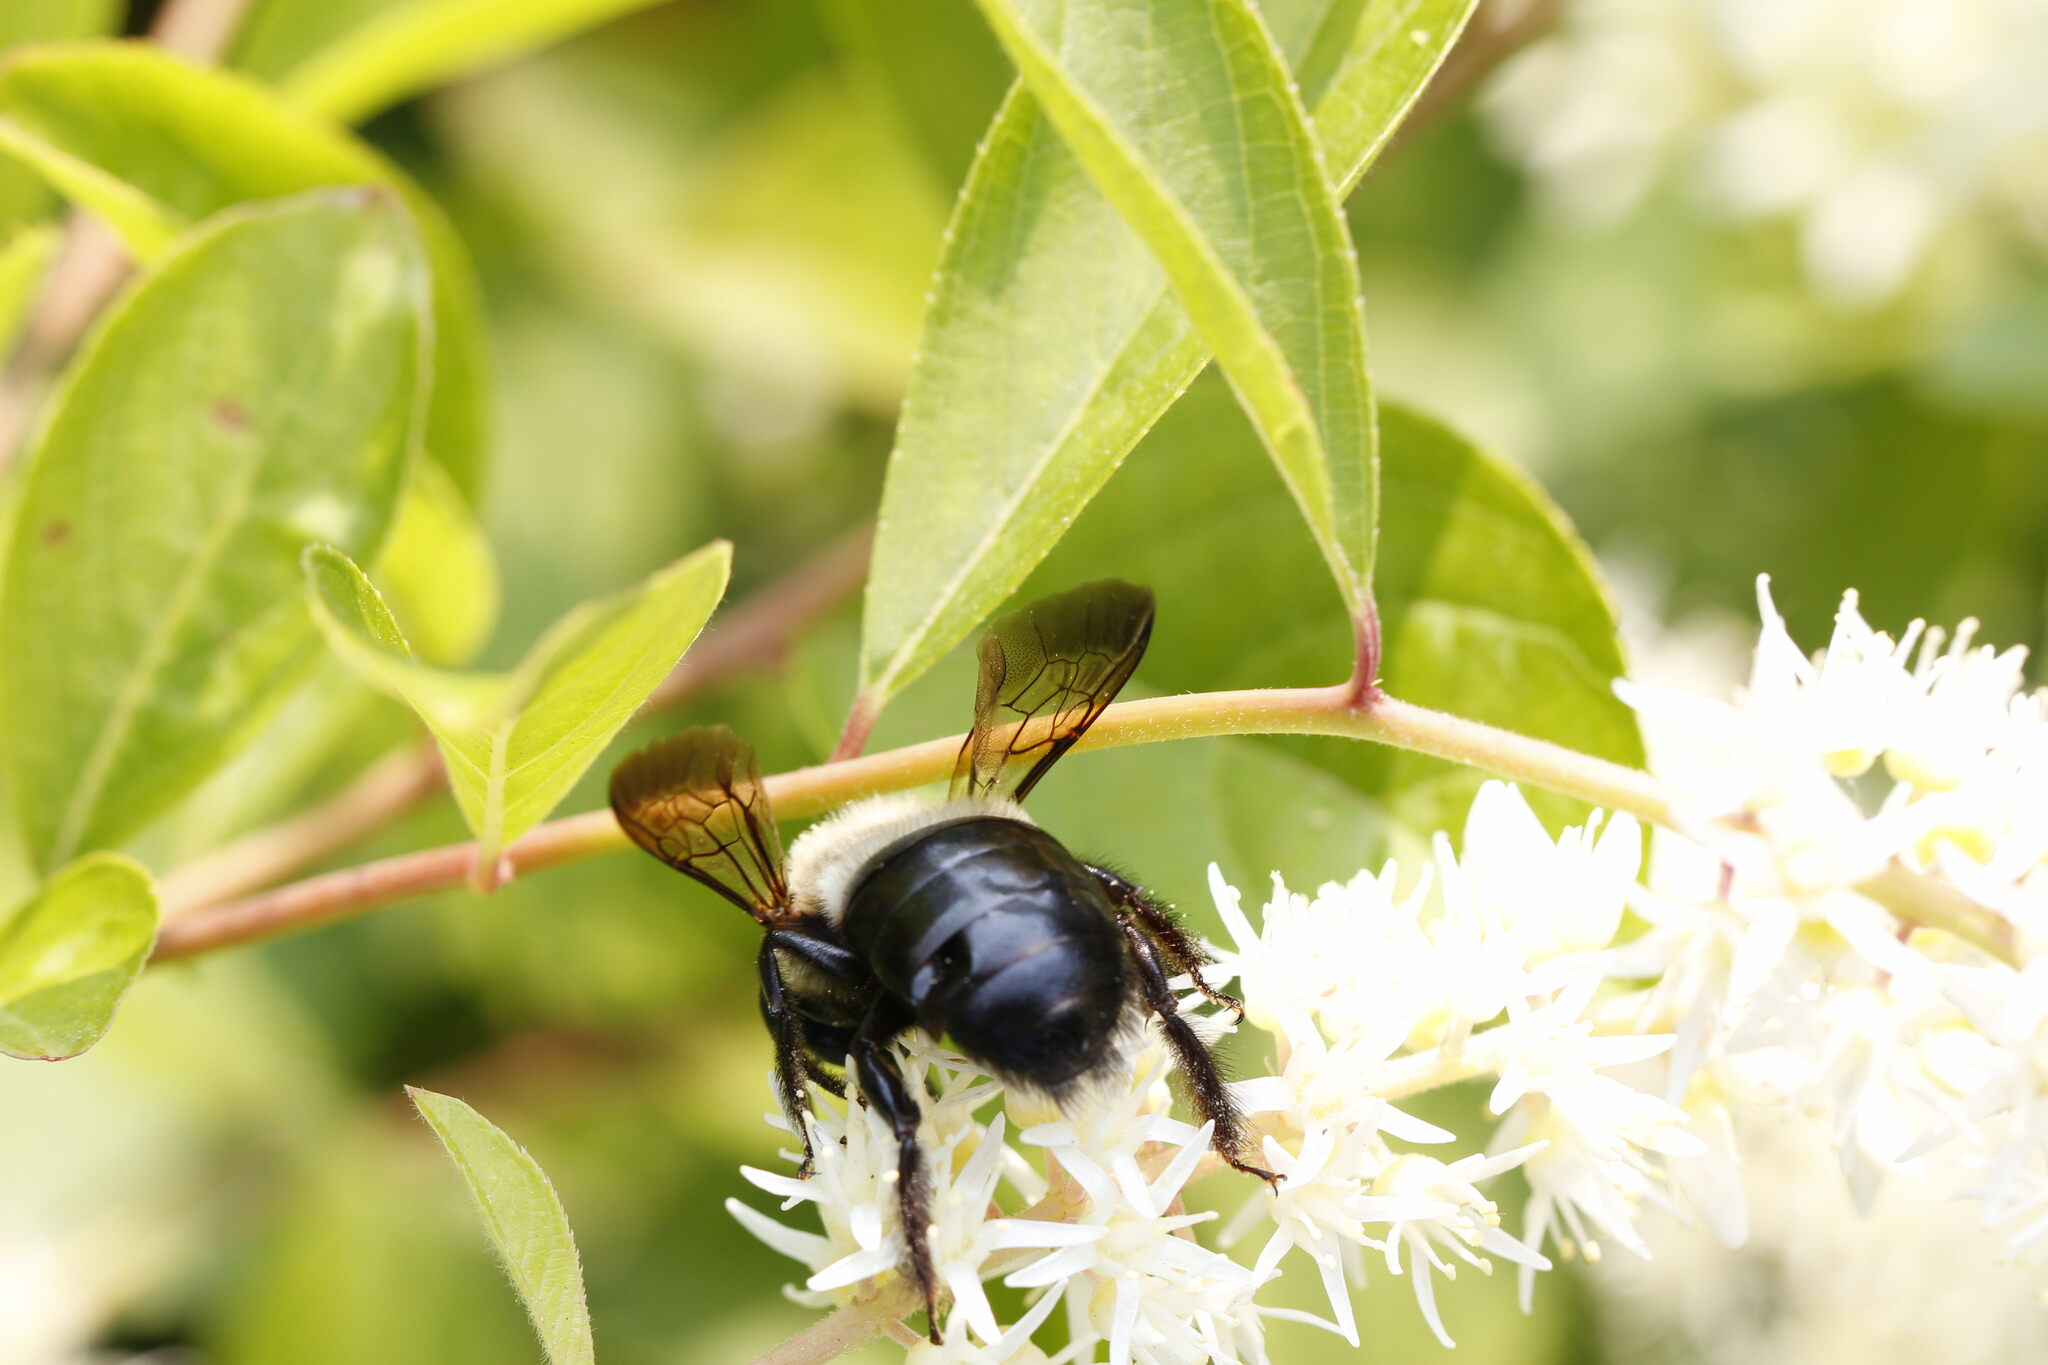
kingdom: Animalia
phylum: Arthropoda
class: Insecta
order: Hymenoptera
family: Apidae
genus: Xylocopa
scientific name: Xylocopa virginica
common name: Carpenter bee
